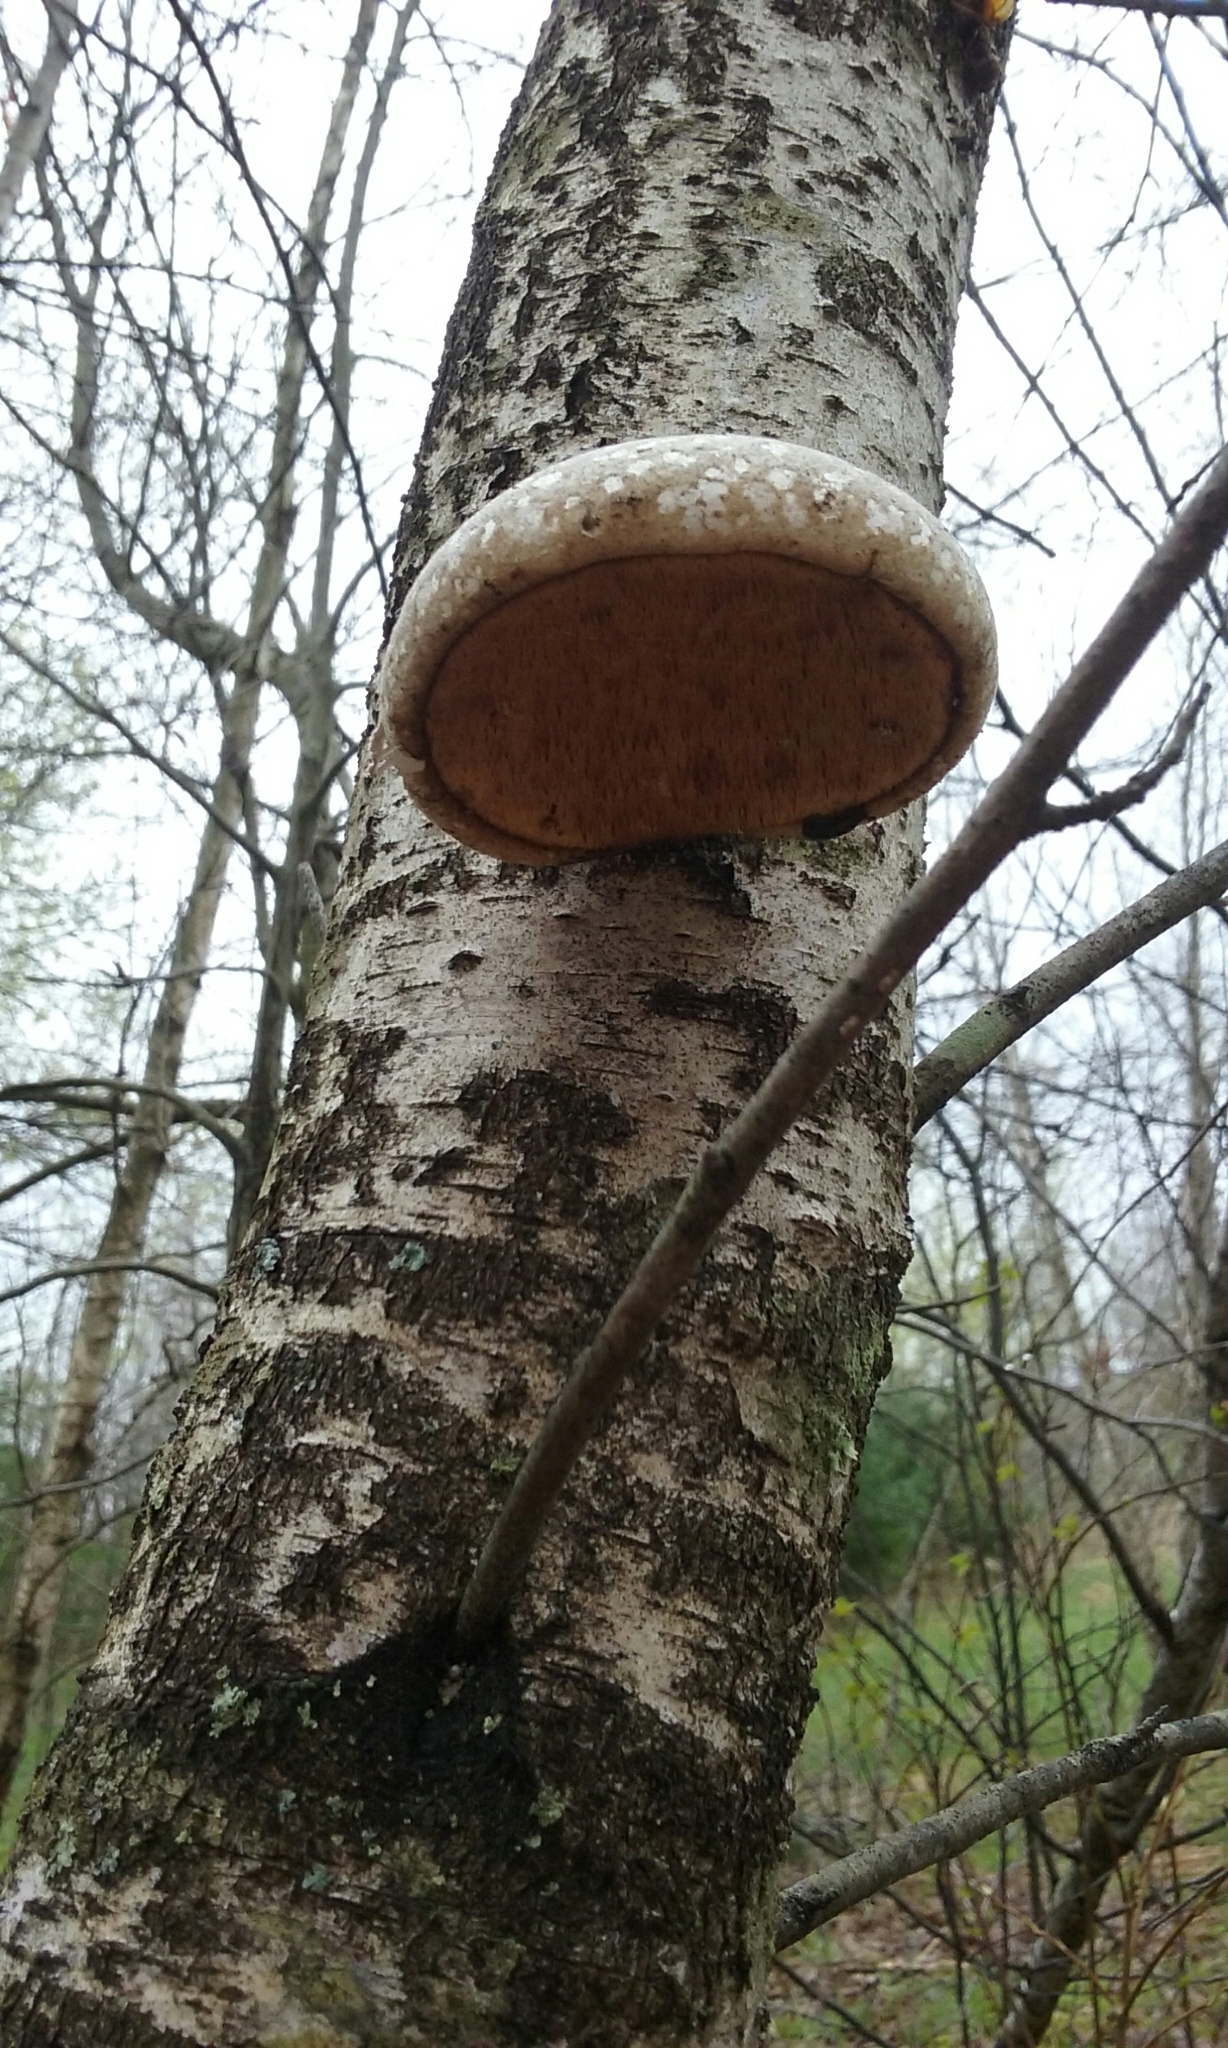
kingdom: Fungi
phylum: Basidiomycota
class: Agaricomycetes
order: Polyporales
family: Fomitopsidaceae
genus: Fomitopsis
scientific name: Fomitopsis betulina
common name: Birch polypore
